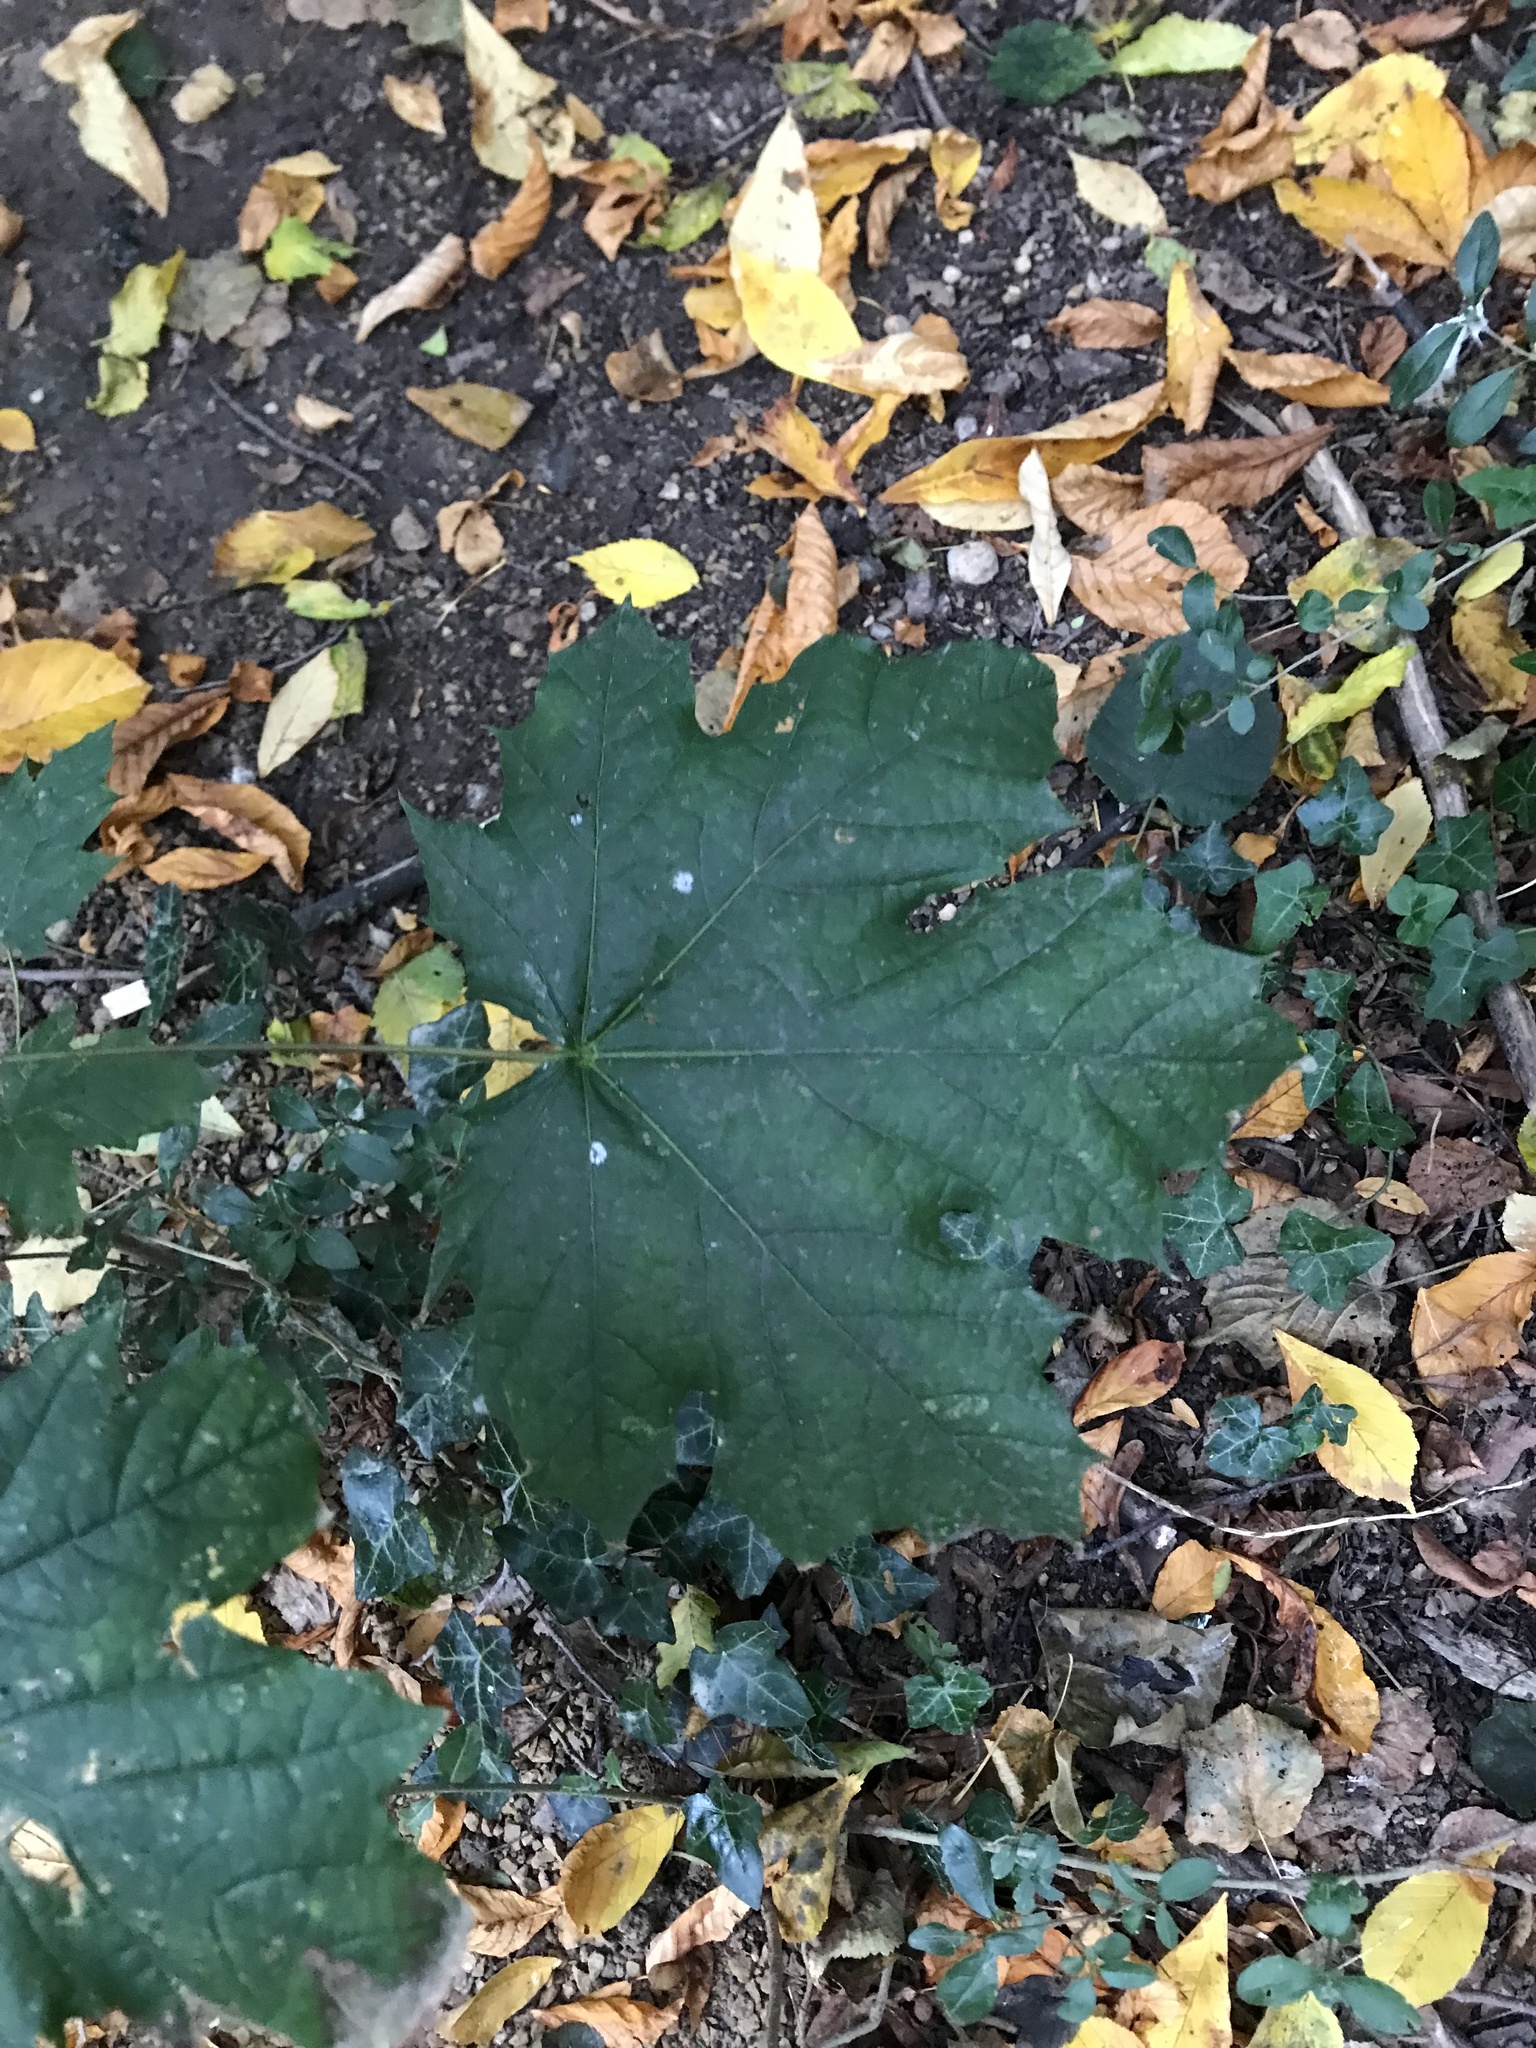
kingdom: Plantae
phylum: Tracheophyta
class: Magnoliopsida
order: Sapindales
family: Sapindaceae
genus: Acer
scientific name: Acer platanoides
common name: Norway maple
